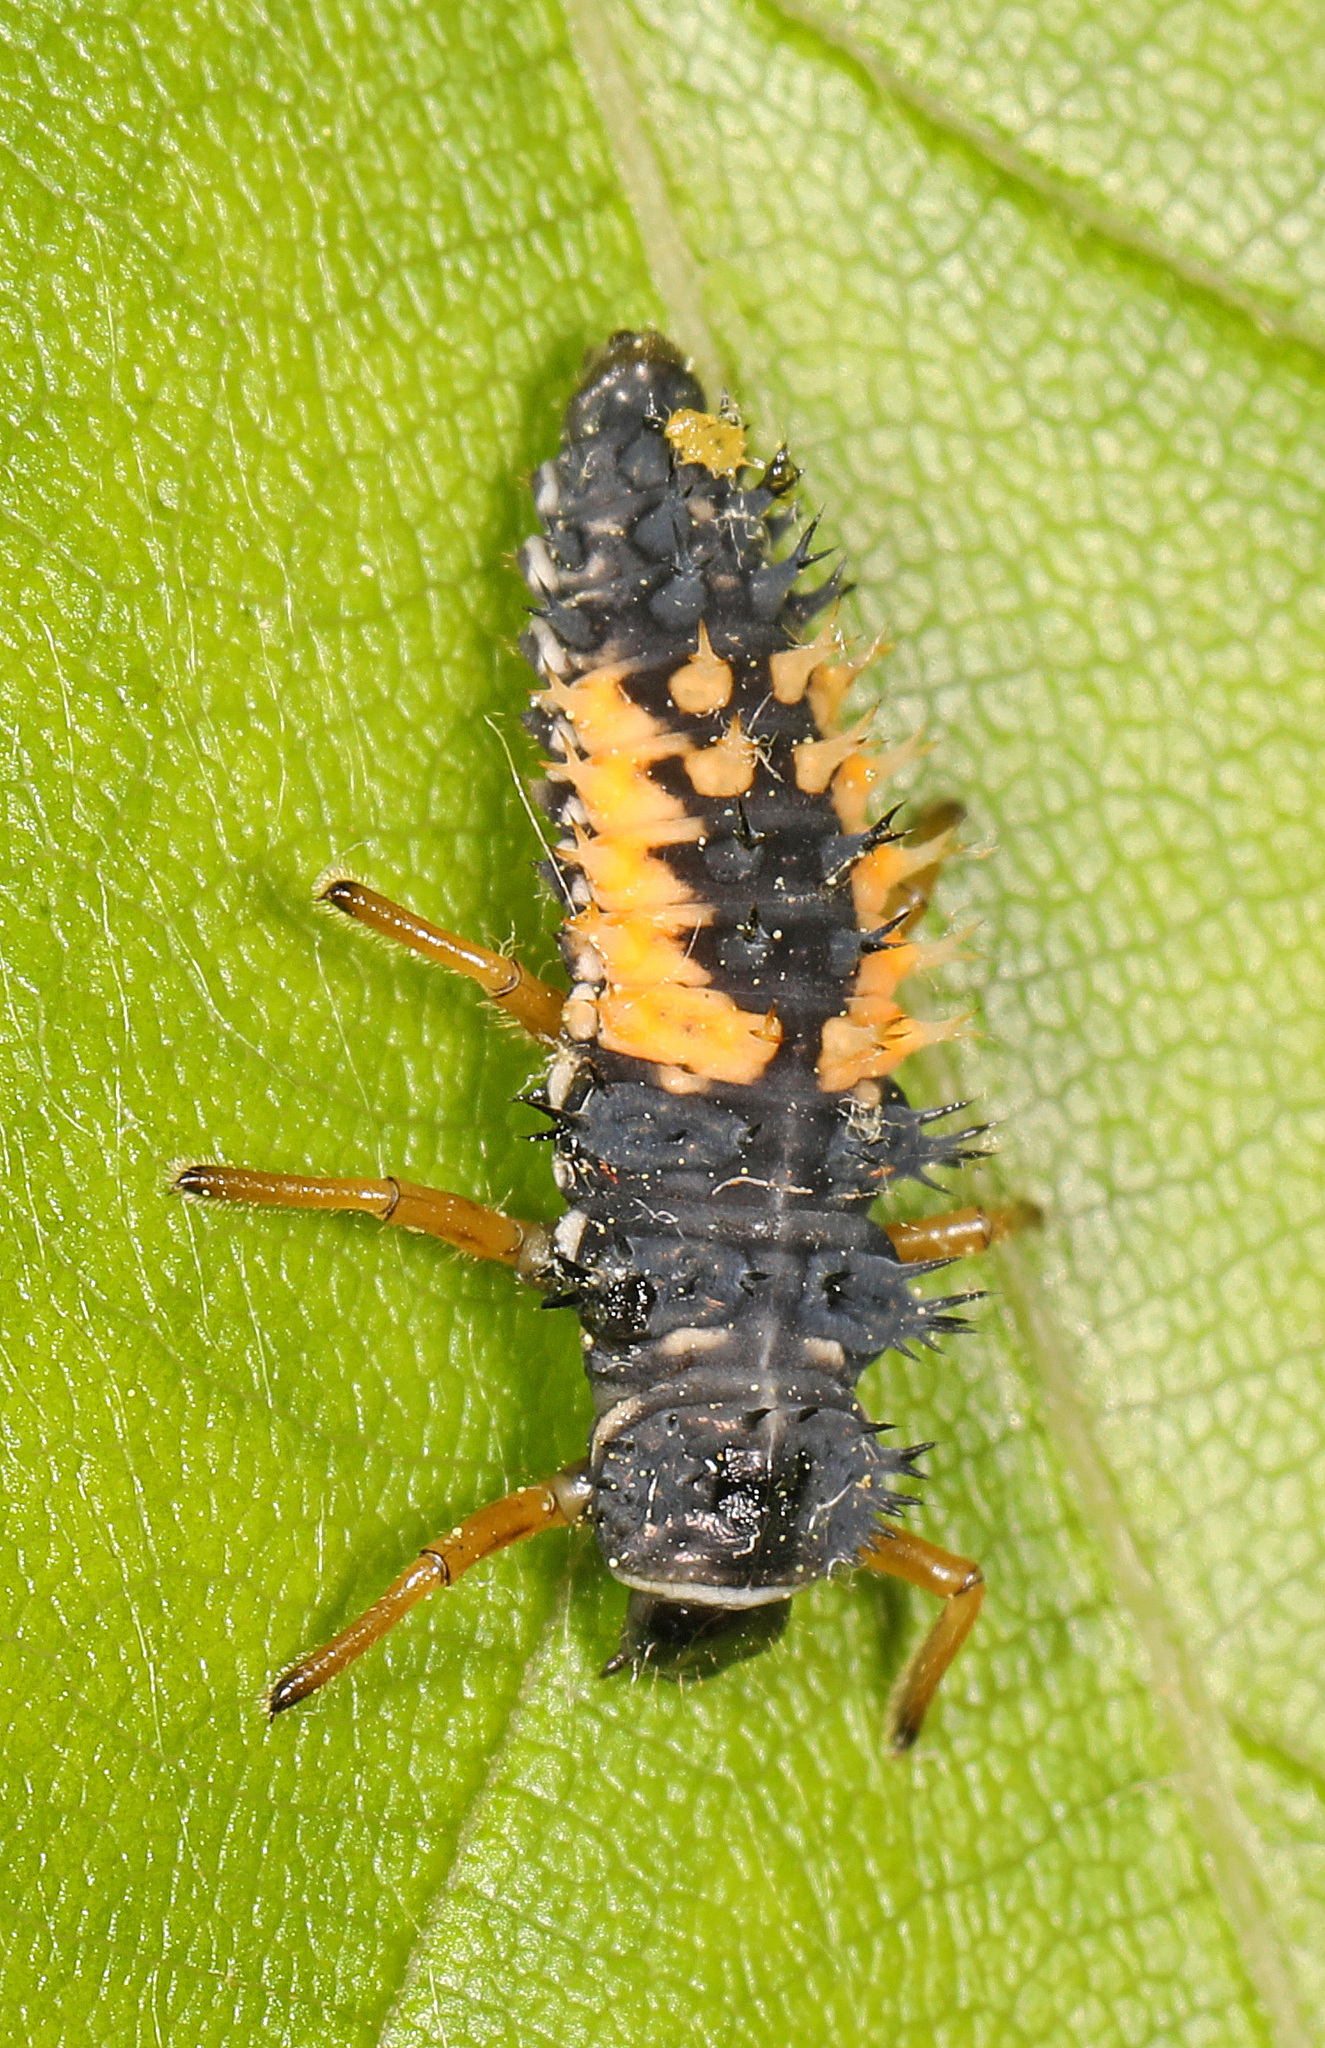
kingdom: Animalia
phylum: Arthropoda
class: Insecta
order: Coleoptera
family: Coccinellidae
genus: Harmonia
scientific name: Harmonia axyridis
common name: Harlequin ladybird
